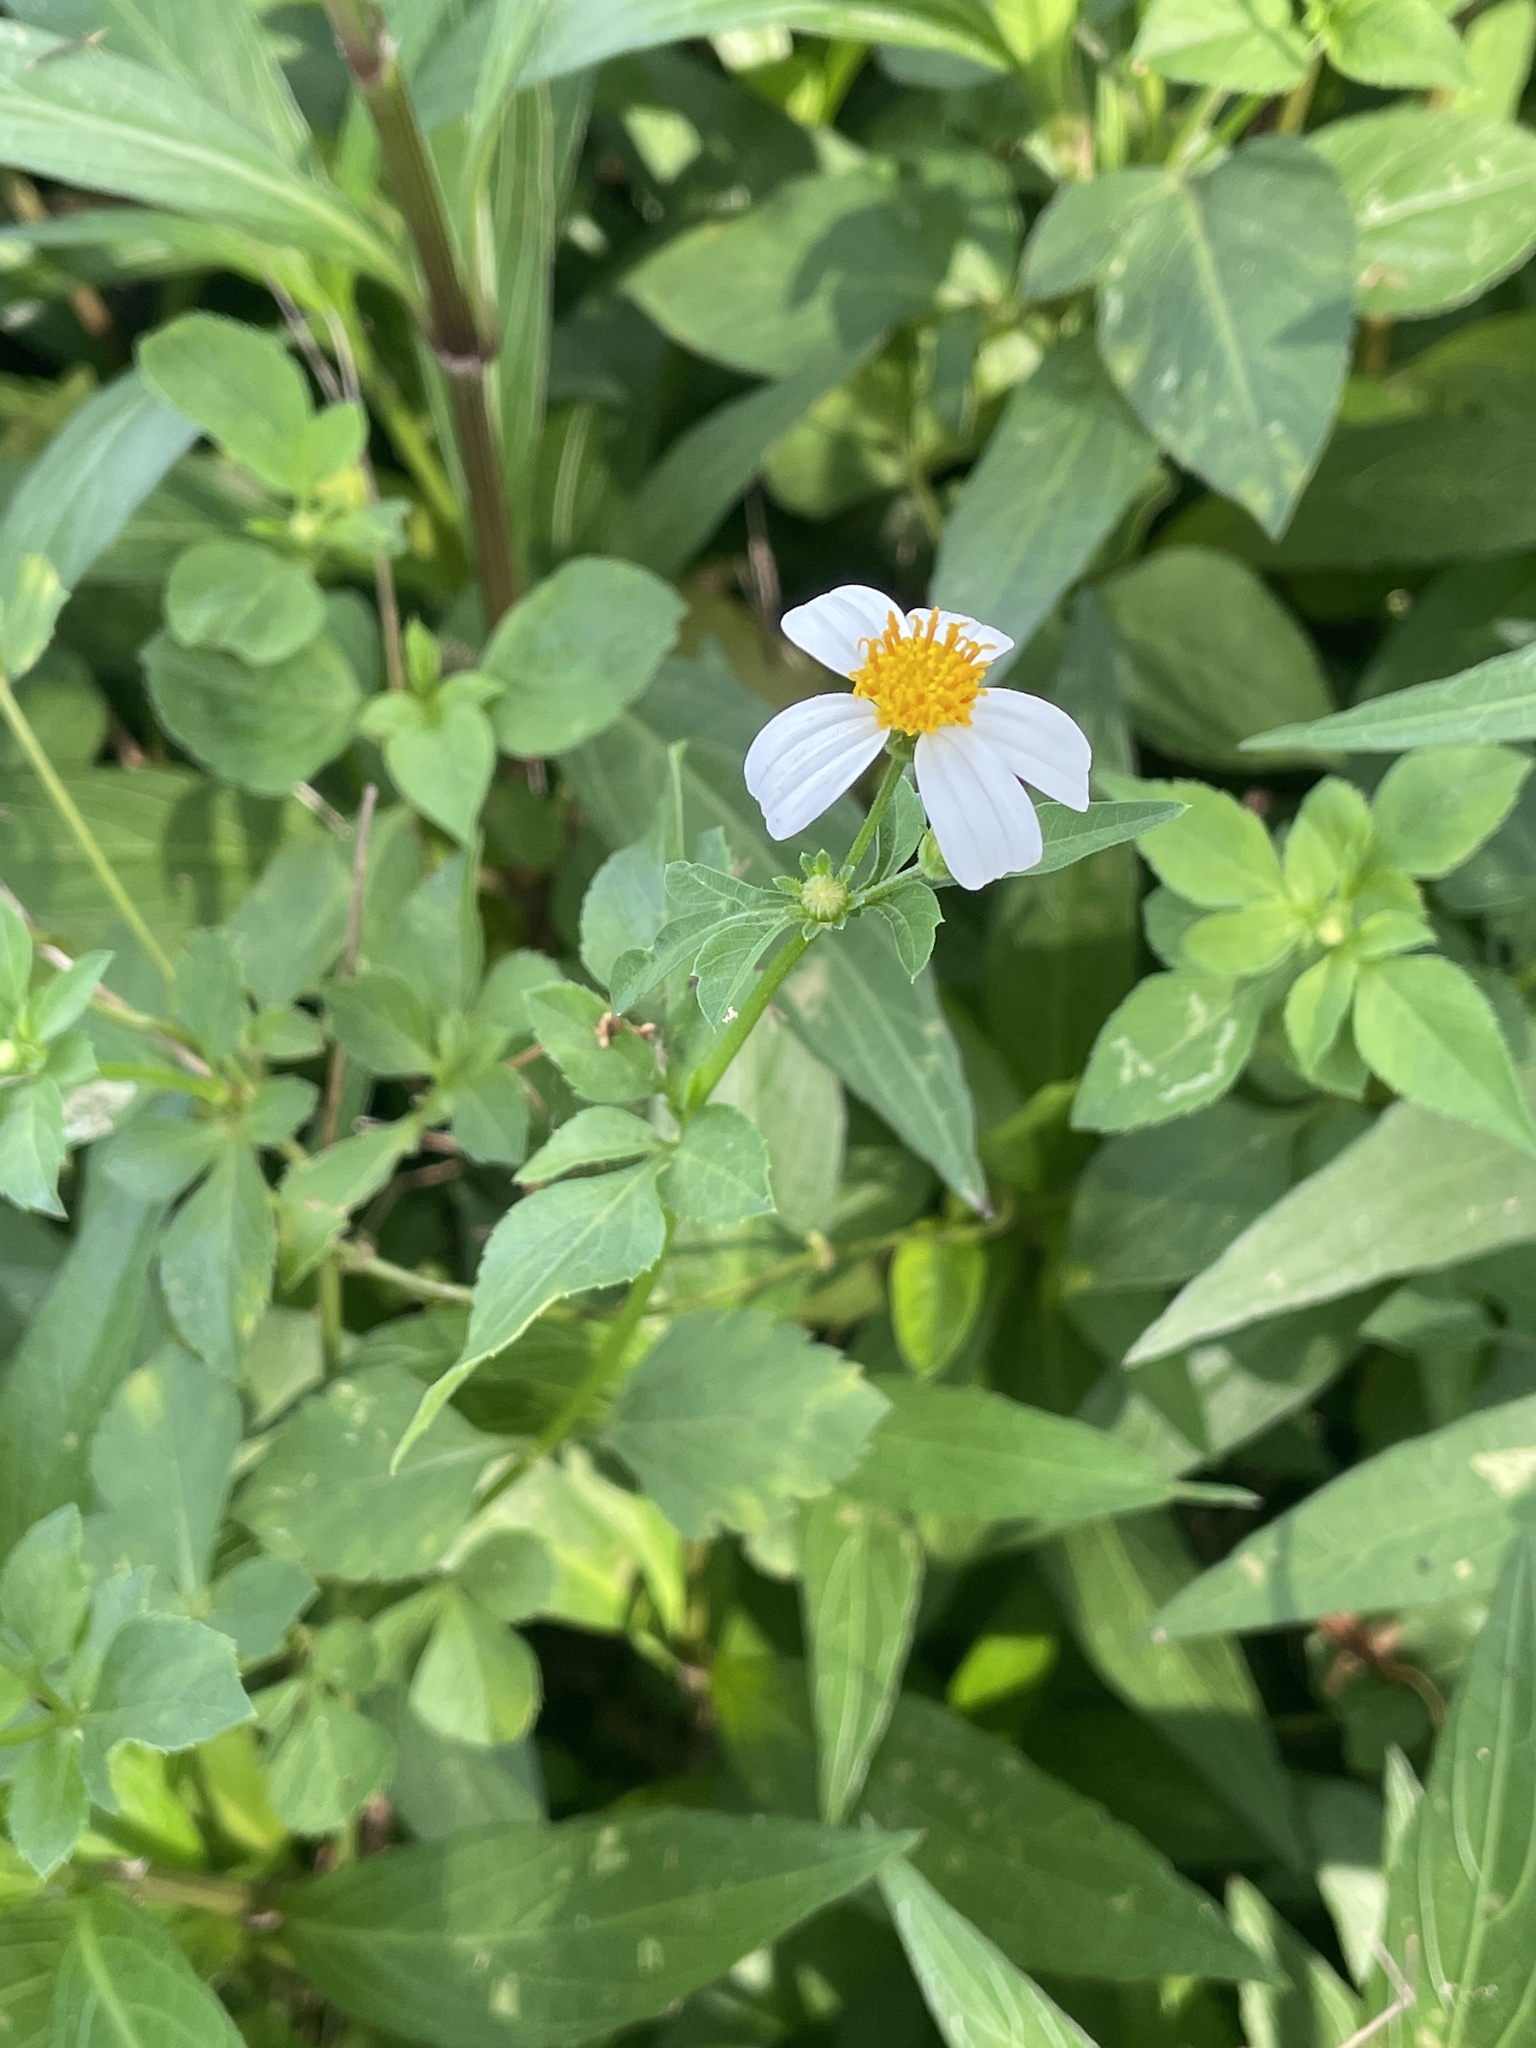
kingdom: Plantae
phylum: Tracheophyta
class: Magnoliopsida
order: Asterales
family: Asteraceae
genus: Bidens
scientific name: Bidens alba
